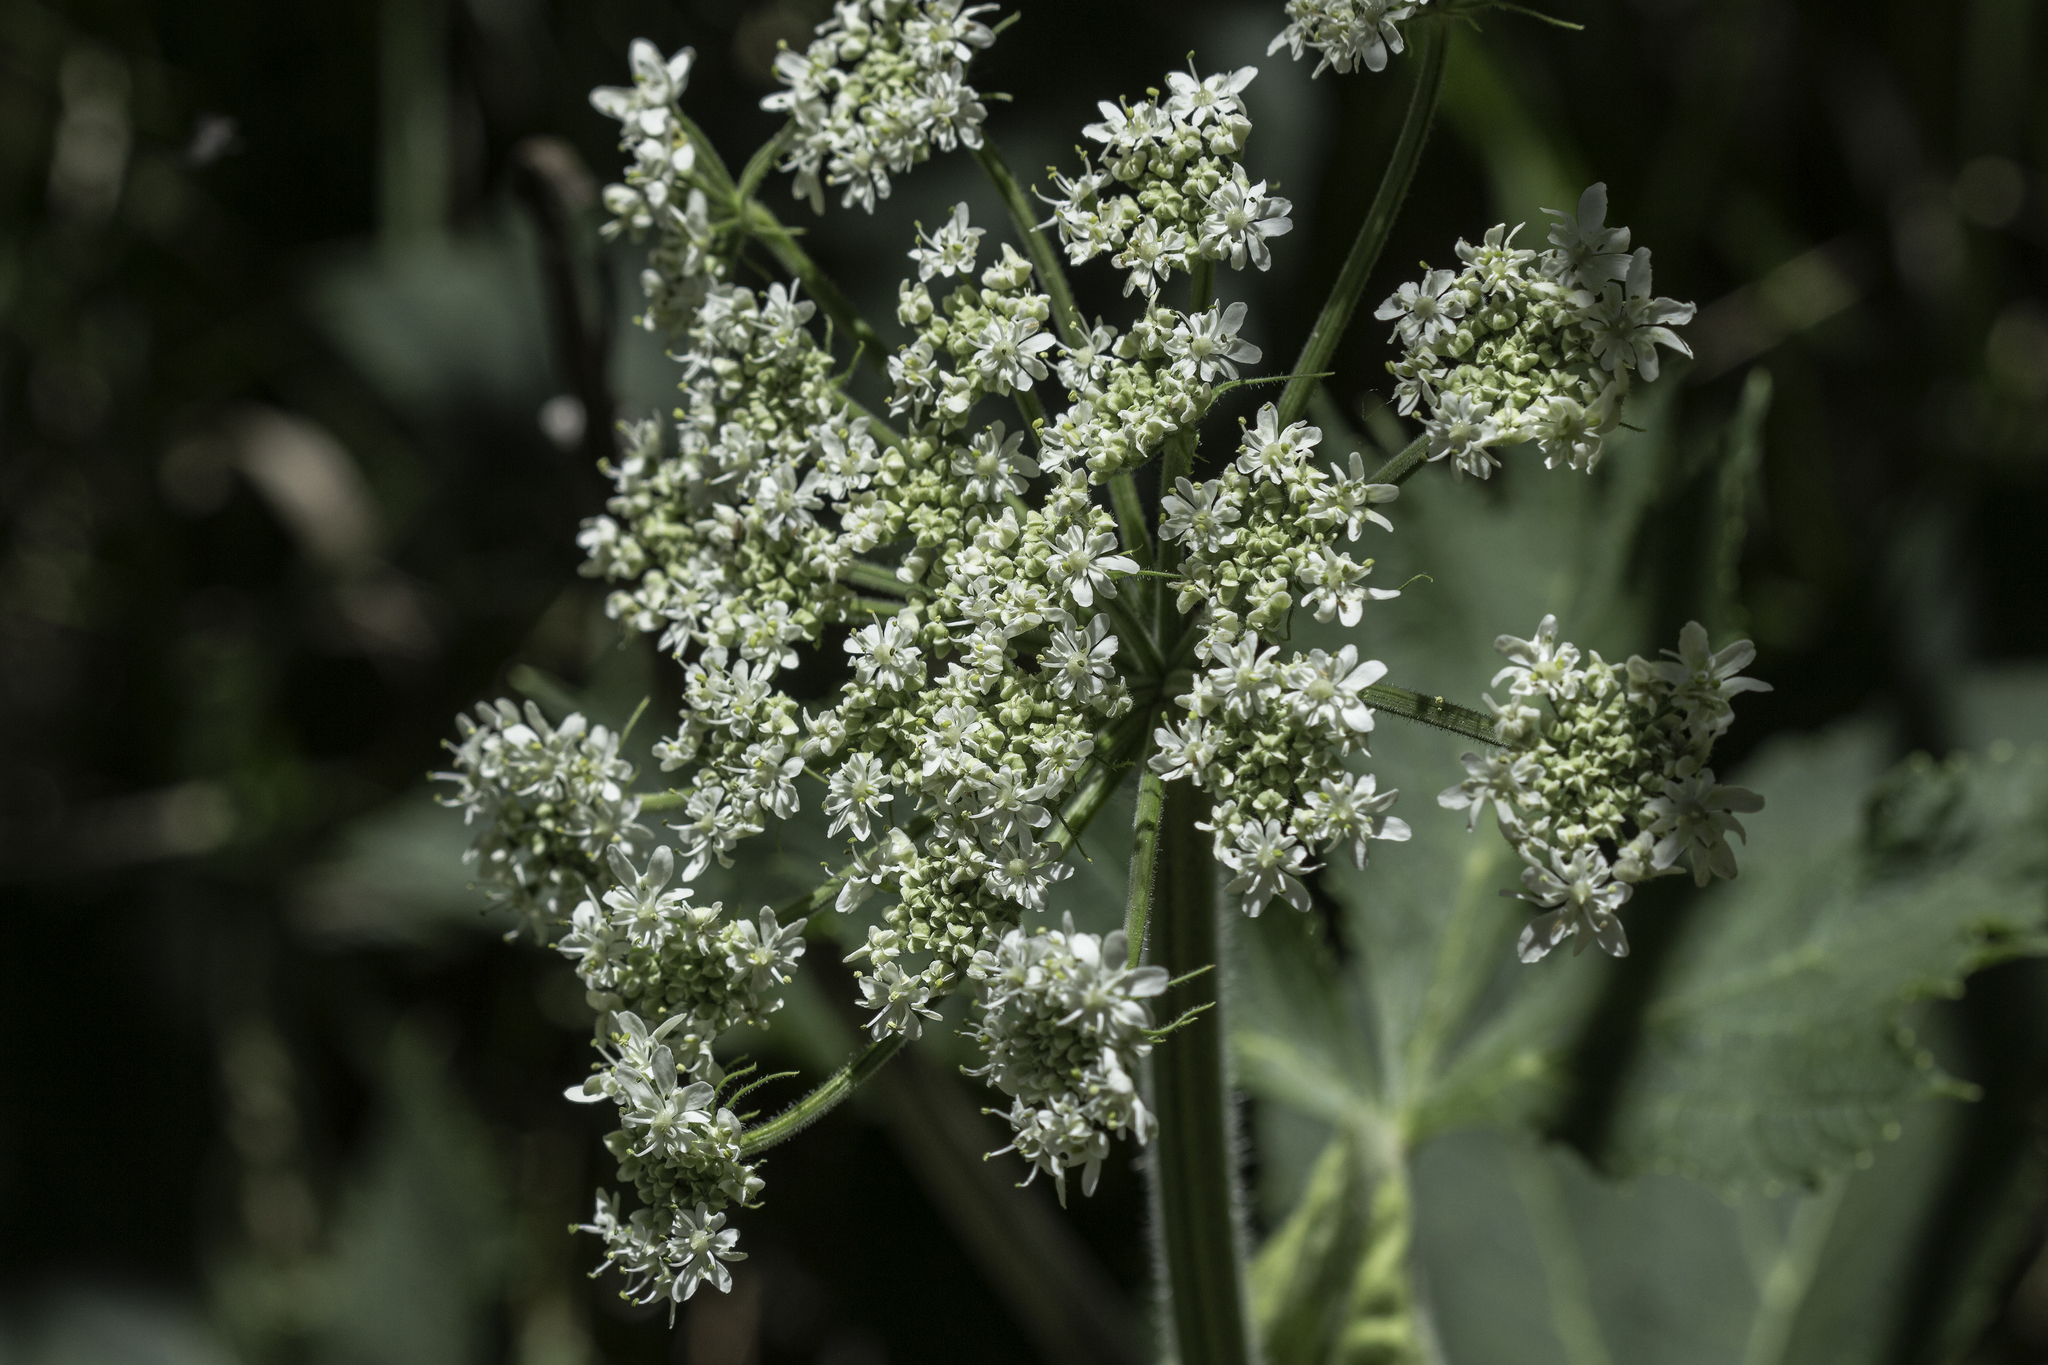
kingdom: Plantae
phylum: Tracheophyta
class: Magnoliopsida
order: Apiales
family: Apiaceae
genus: Heracleum
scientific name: Heracleum maximum
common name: American cow parsnip
